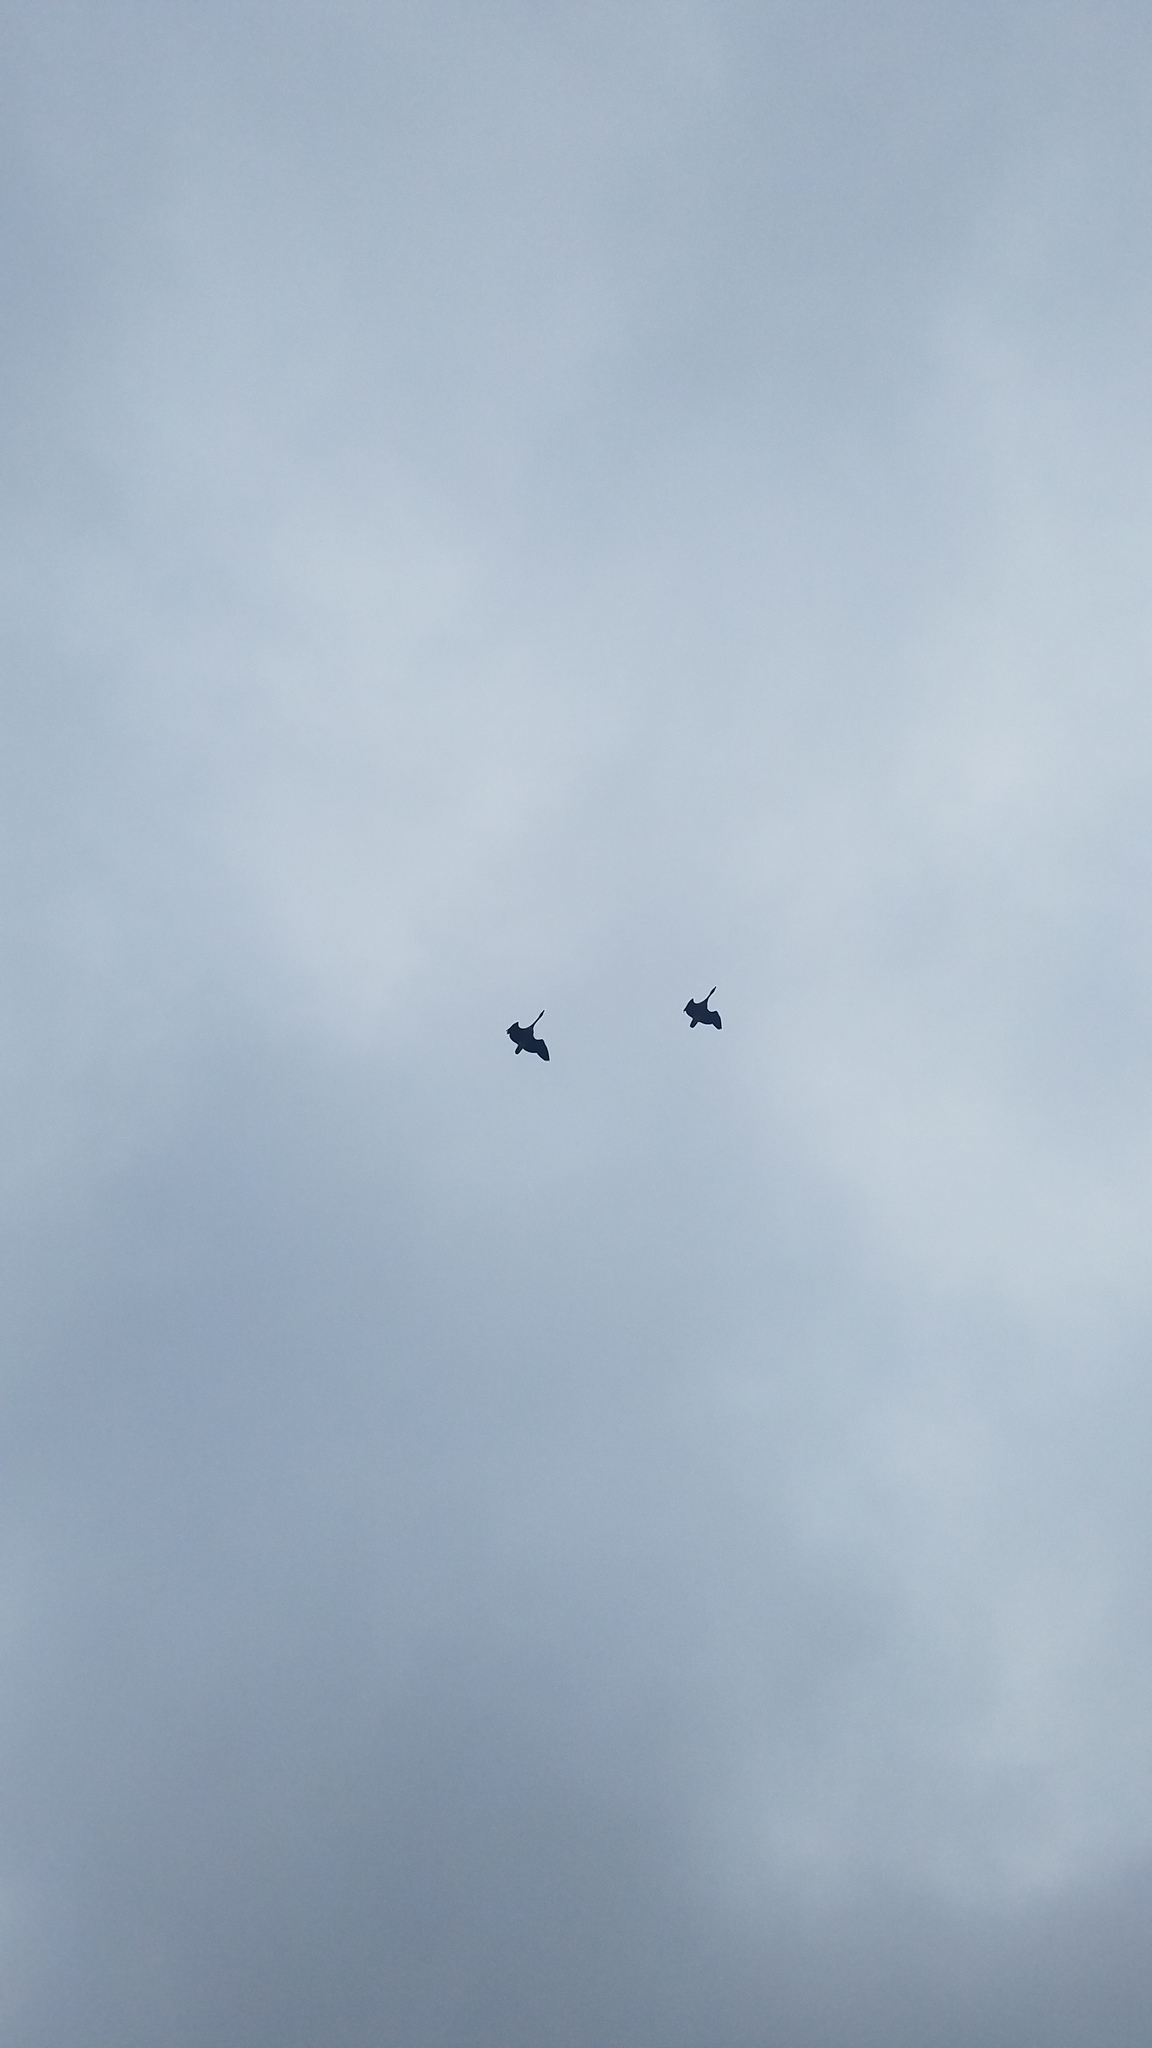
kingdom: Animalia
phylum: Chordata
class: Aves
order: Anseriformes
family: Anatidae
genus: Branta
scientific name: Branta canadensis
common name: Canada goose
